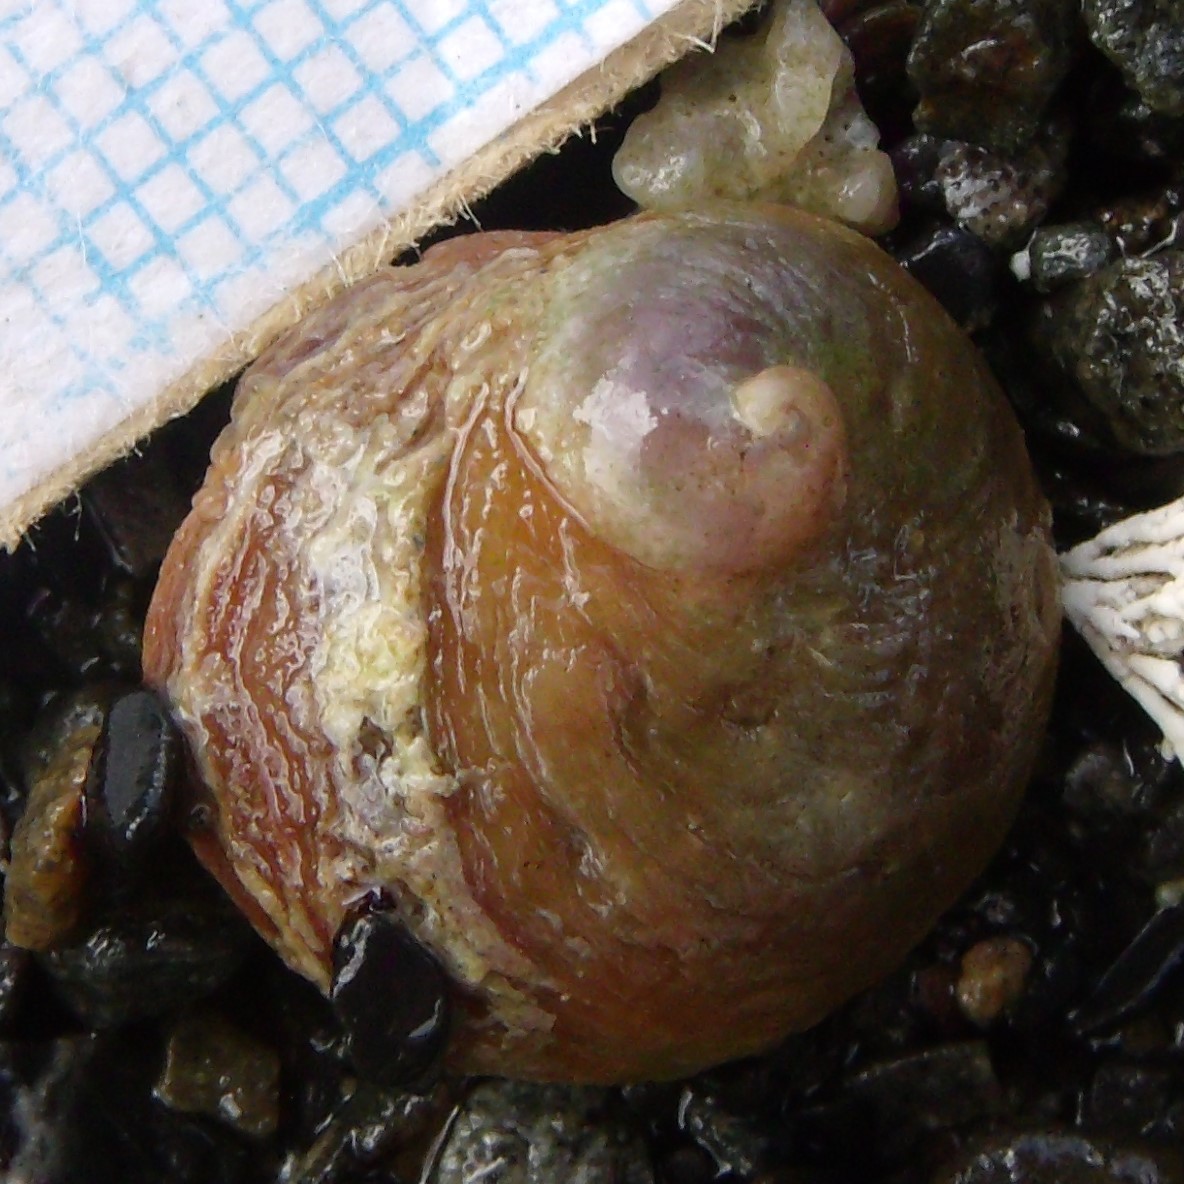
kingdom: Animalia
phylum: Mollusca
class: Gastropoda
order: Littorinimorpha
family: Calyptraeidae
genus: Sigapatella
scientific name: Sigapatella novaezelandiae
